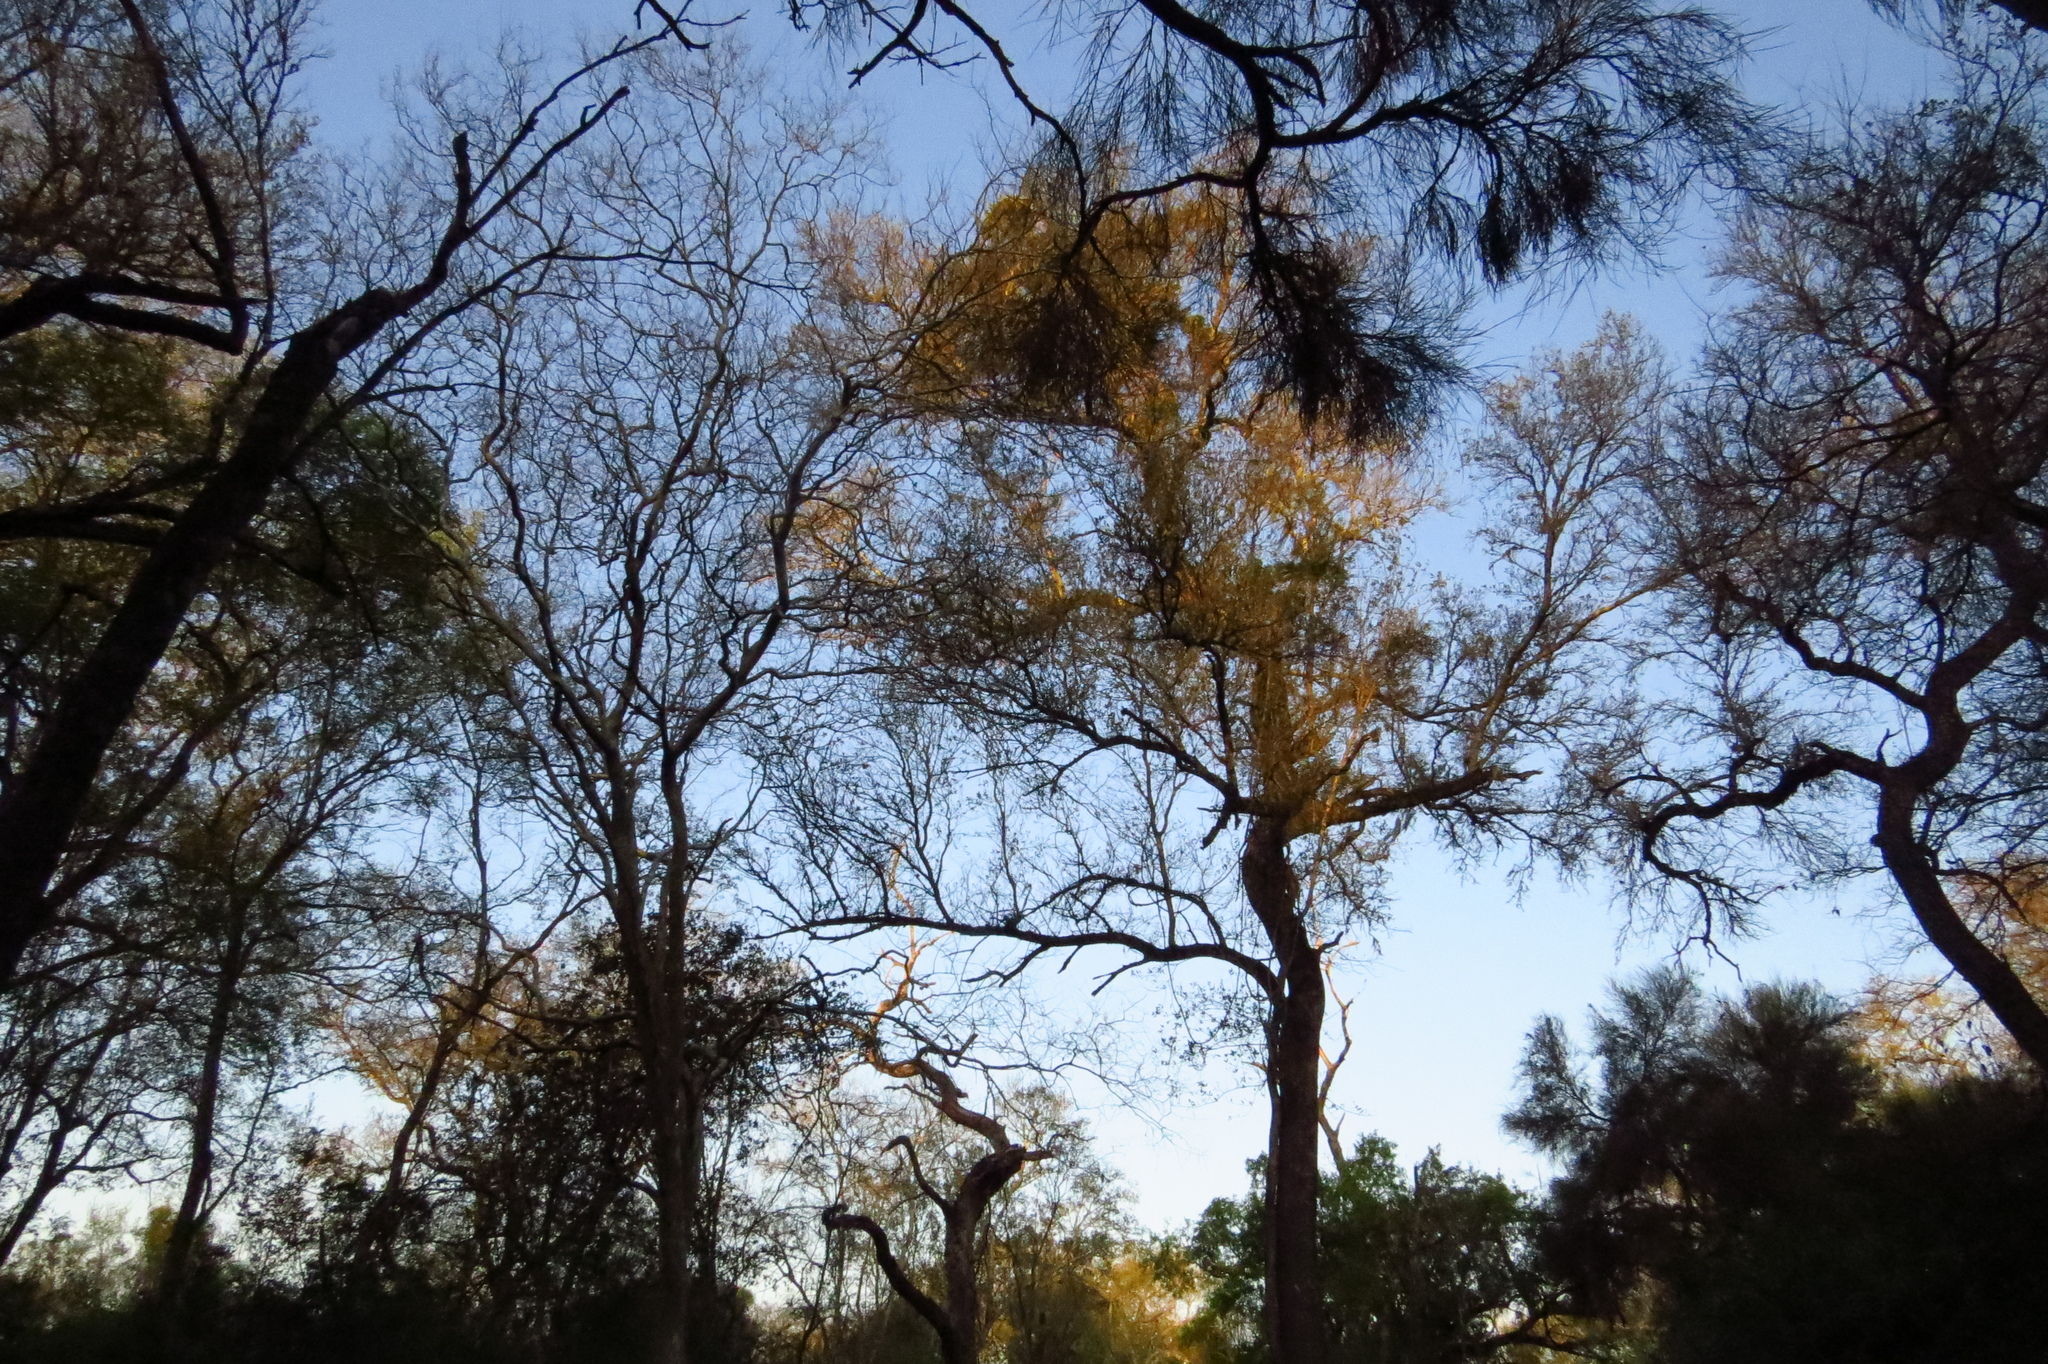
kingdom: Plantae
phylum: Tracheophyta
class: Magnoliopsida
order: Sapindales
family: Anacardiaceae
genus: Schinopsis
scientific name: Schinopsis balansae
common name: Red quebracho
